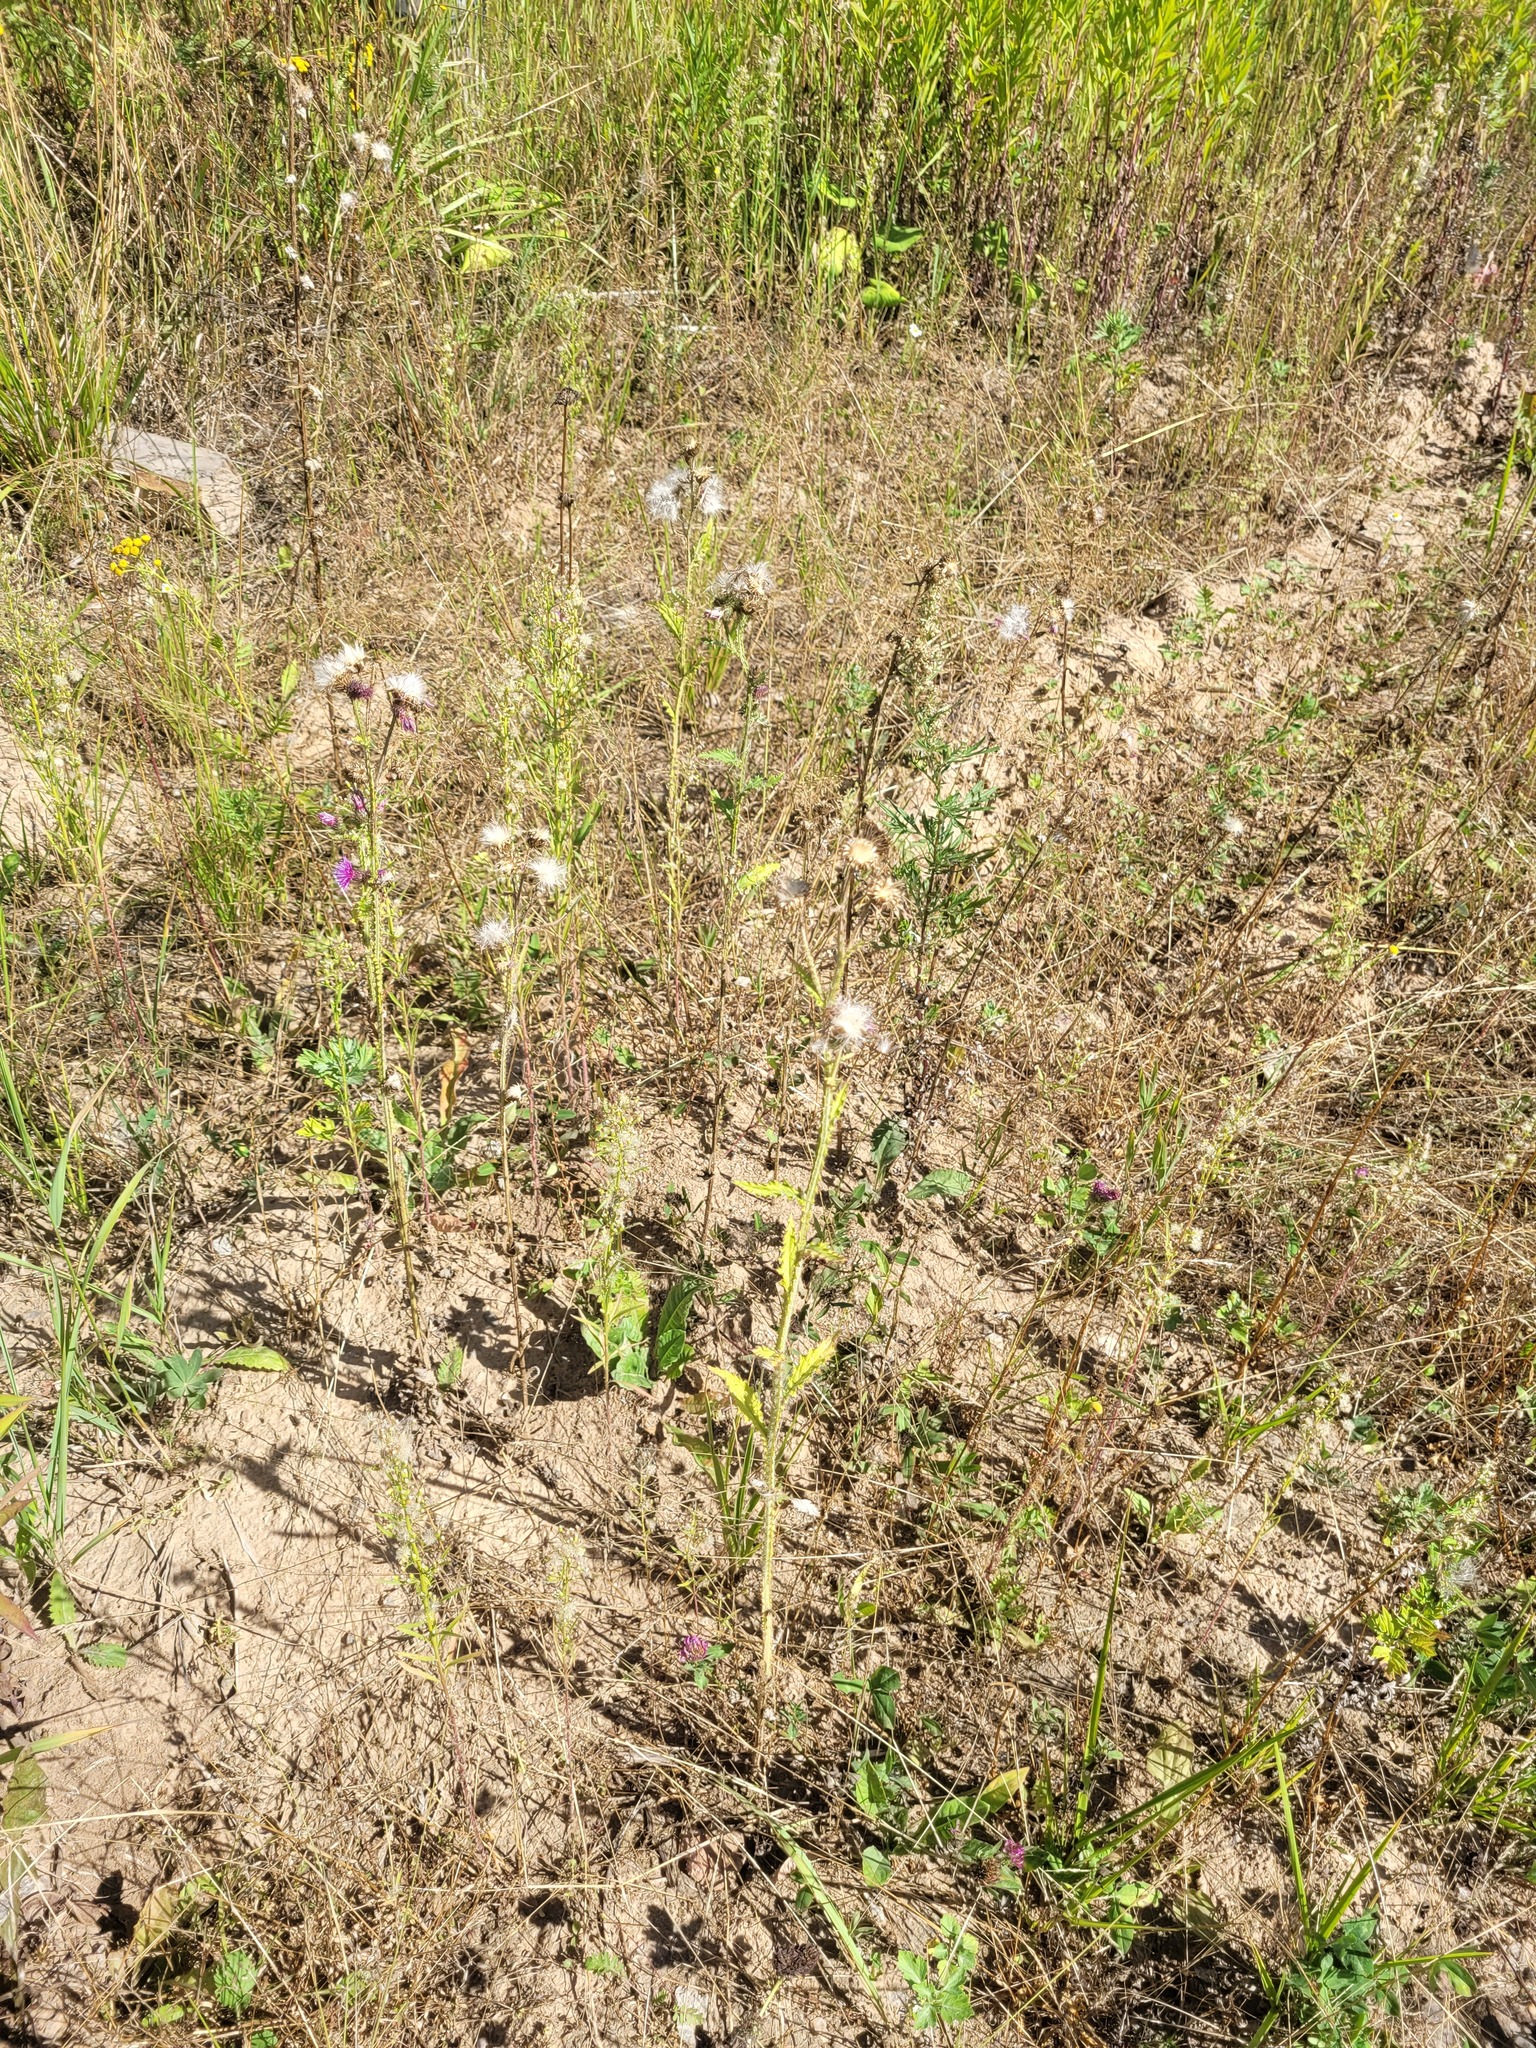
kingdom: Plantae
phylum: Tracheophyta
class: Magnoliopsida
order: Asterales
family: Asteraceae
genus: Carduus
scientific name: Carduus crispus
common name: Welted thistle
